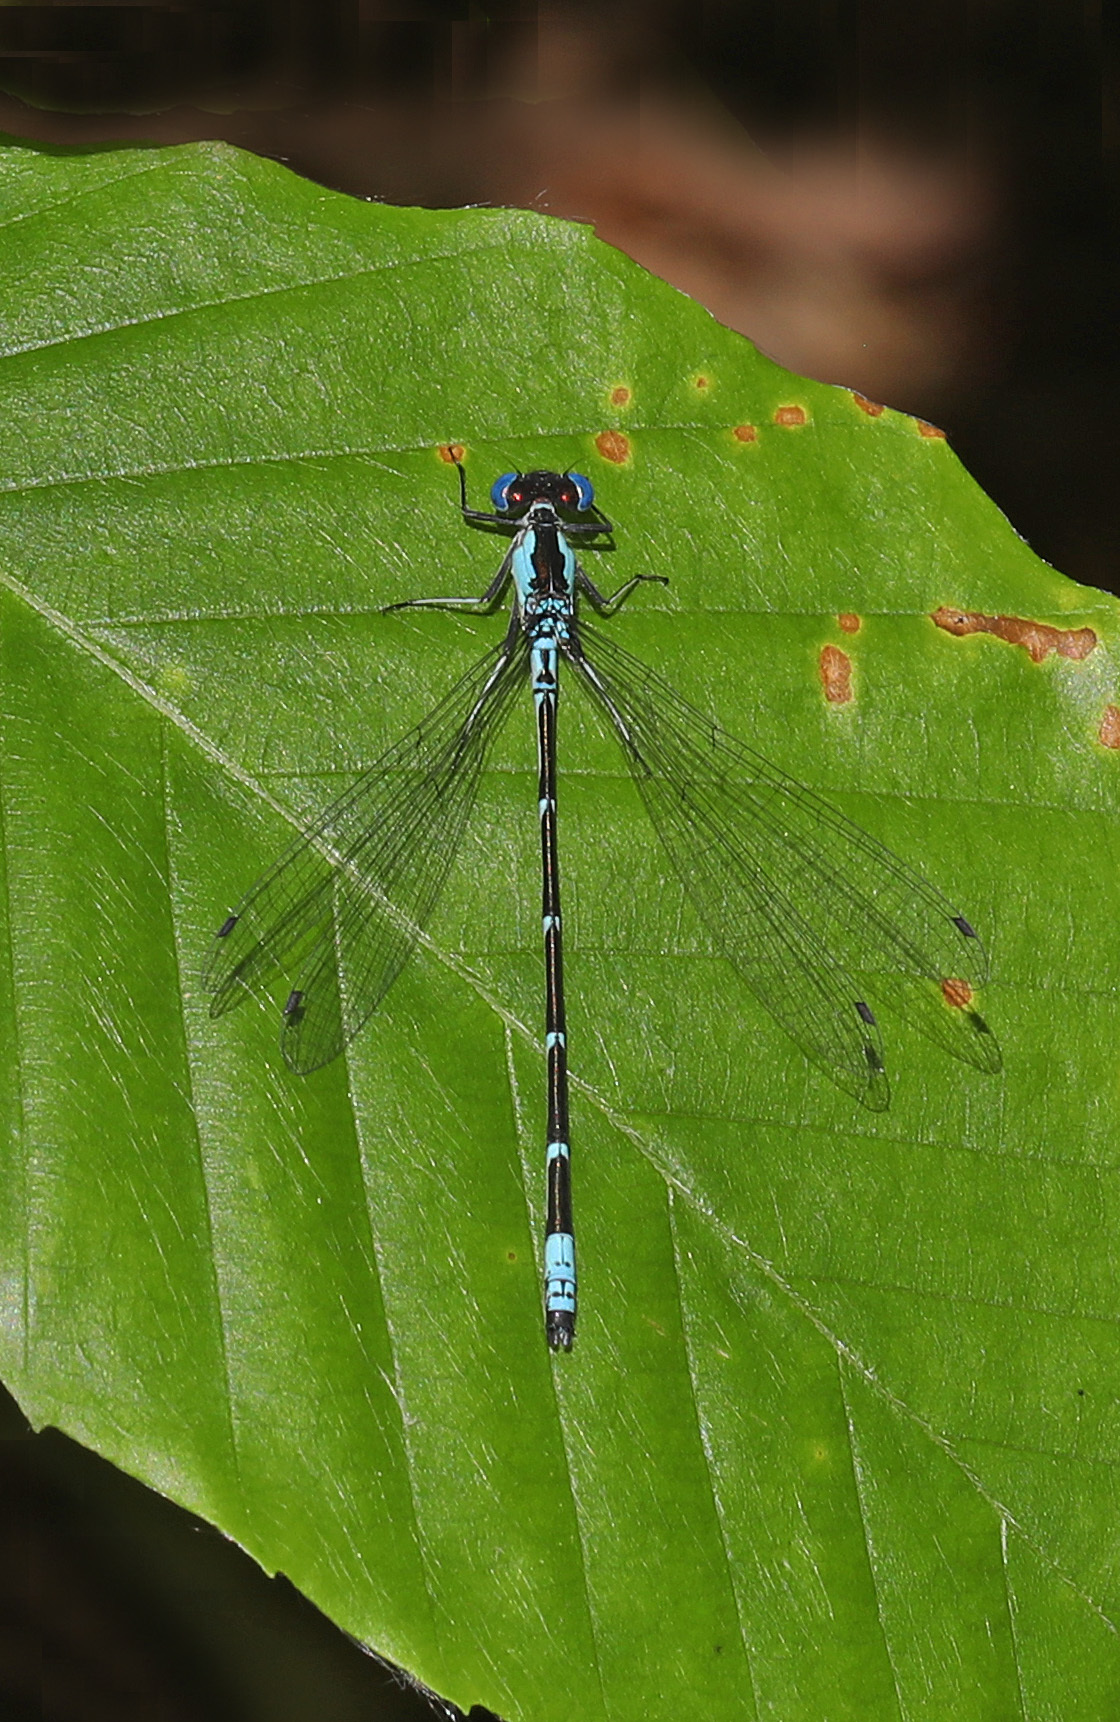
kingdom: Animalia
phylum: Arthropoda
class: Insecta
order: Odonata
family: Coenagrionidae
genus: Chromagrion
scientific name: Chromagrion conditum
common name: Aurora damsel
